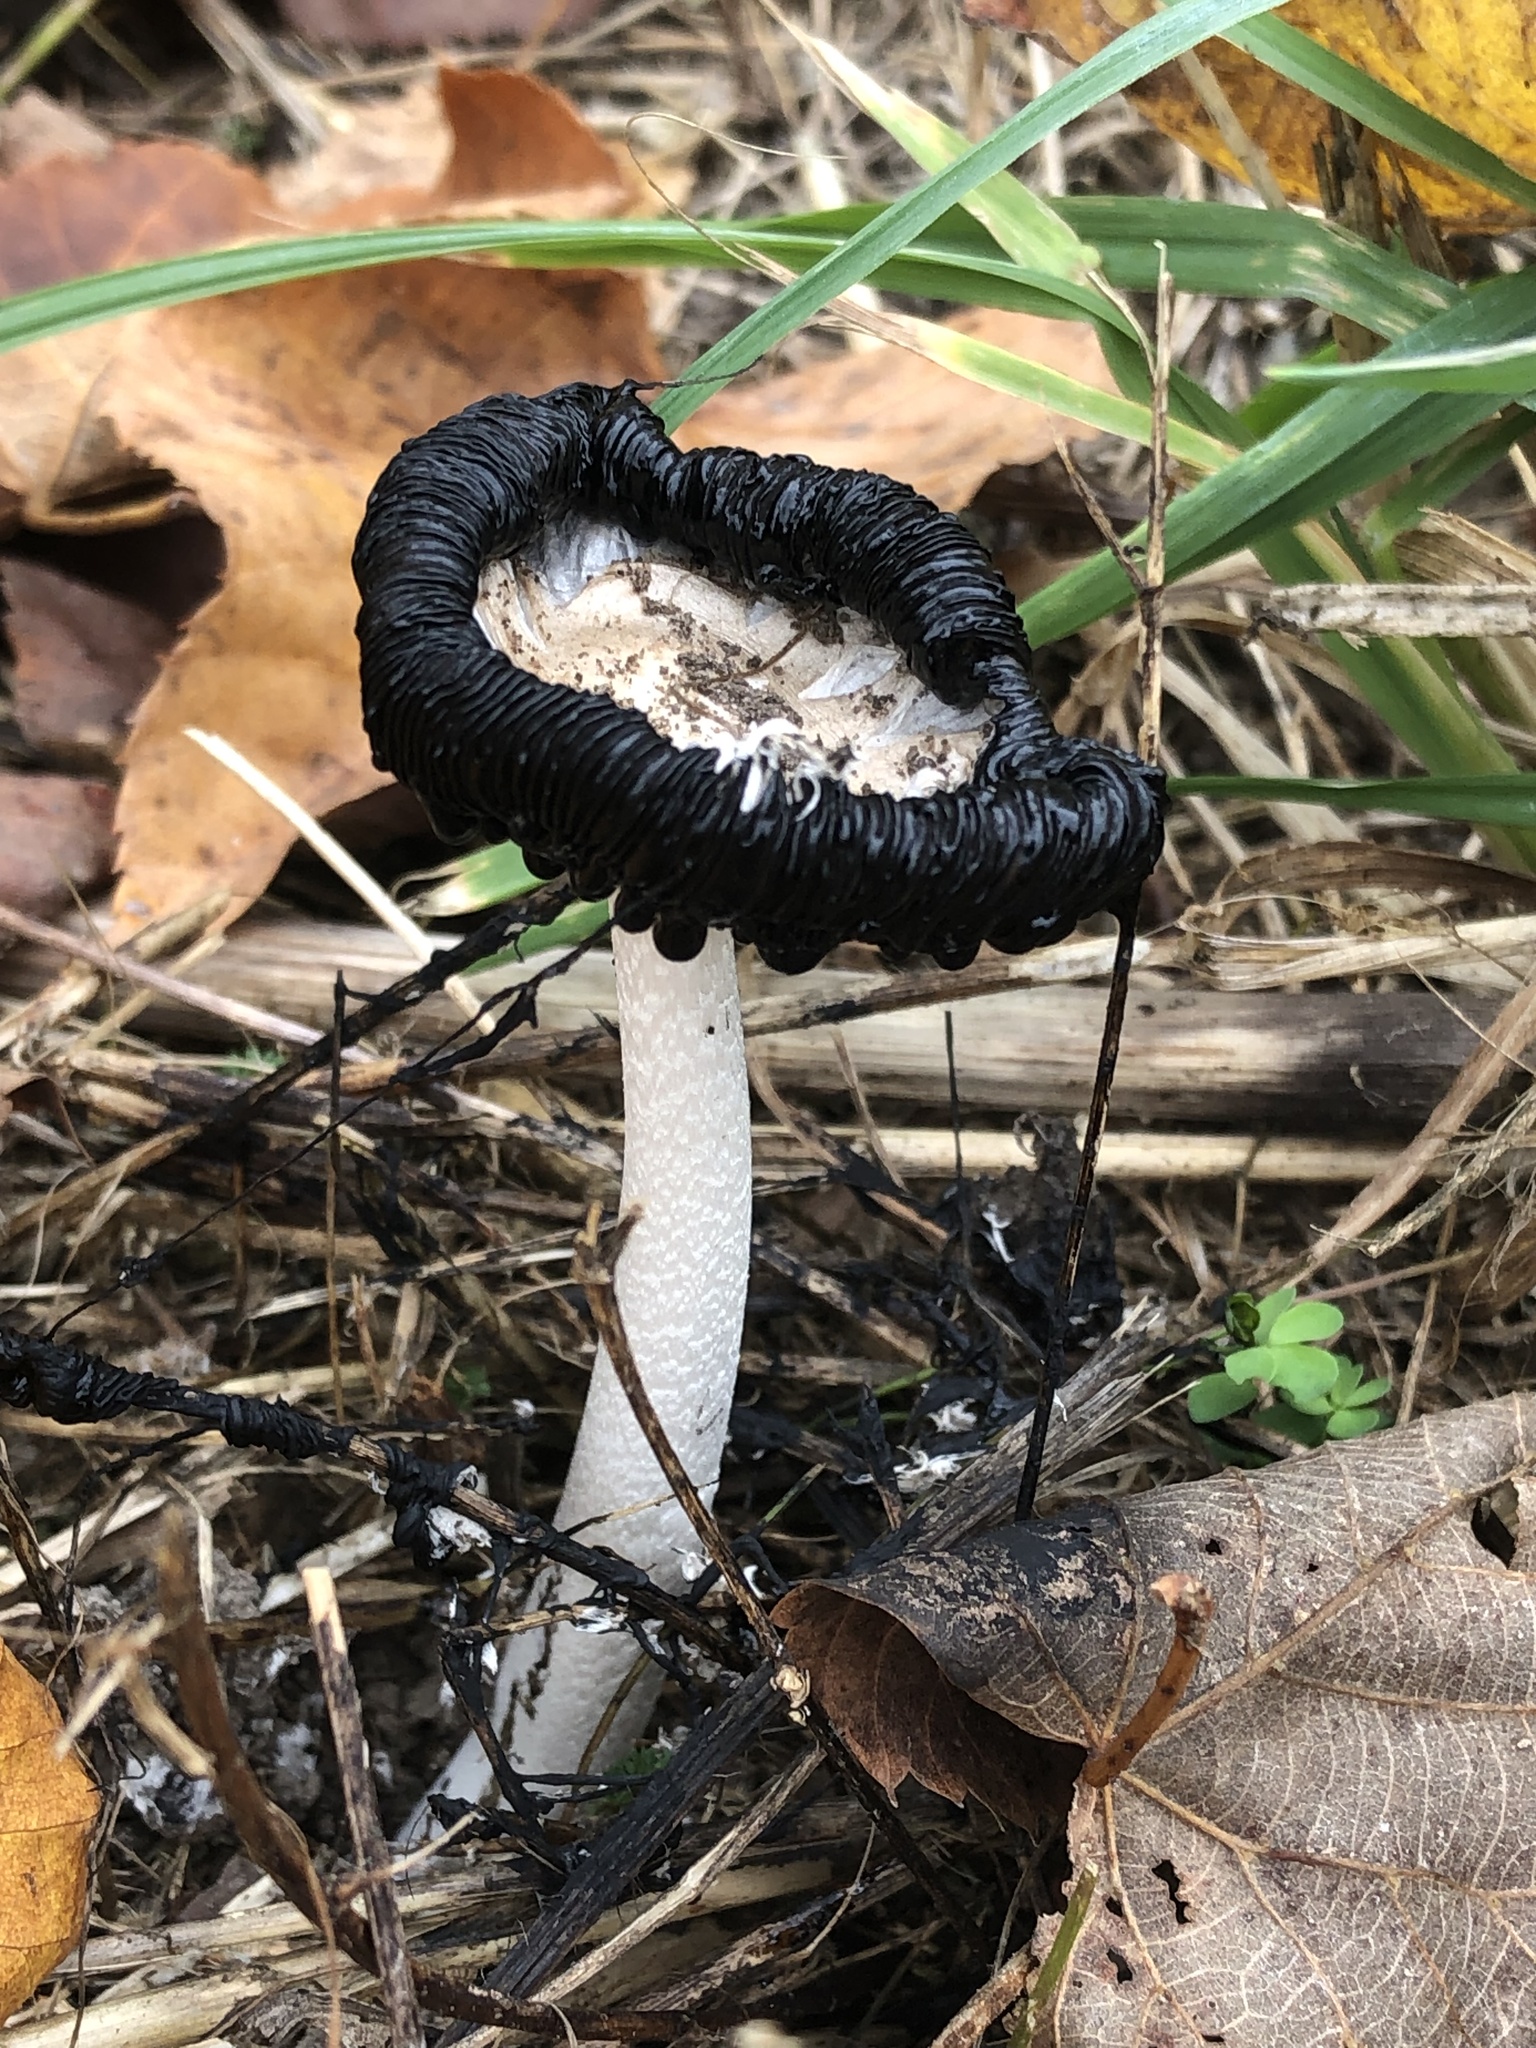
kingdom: Fungi
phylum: Basidiomycota
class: Agaricomycetes
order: Agaricales
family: Agaricaceae
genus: Coprinus
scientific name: Coprinus comatus
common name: Lawyer's wig
